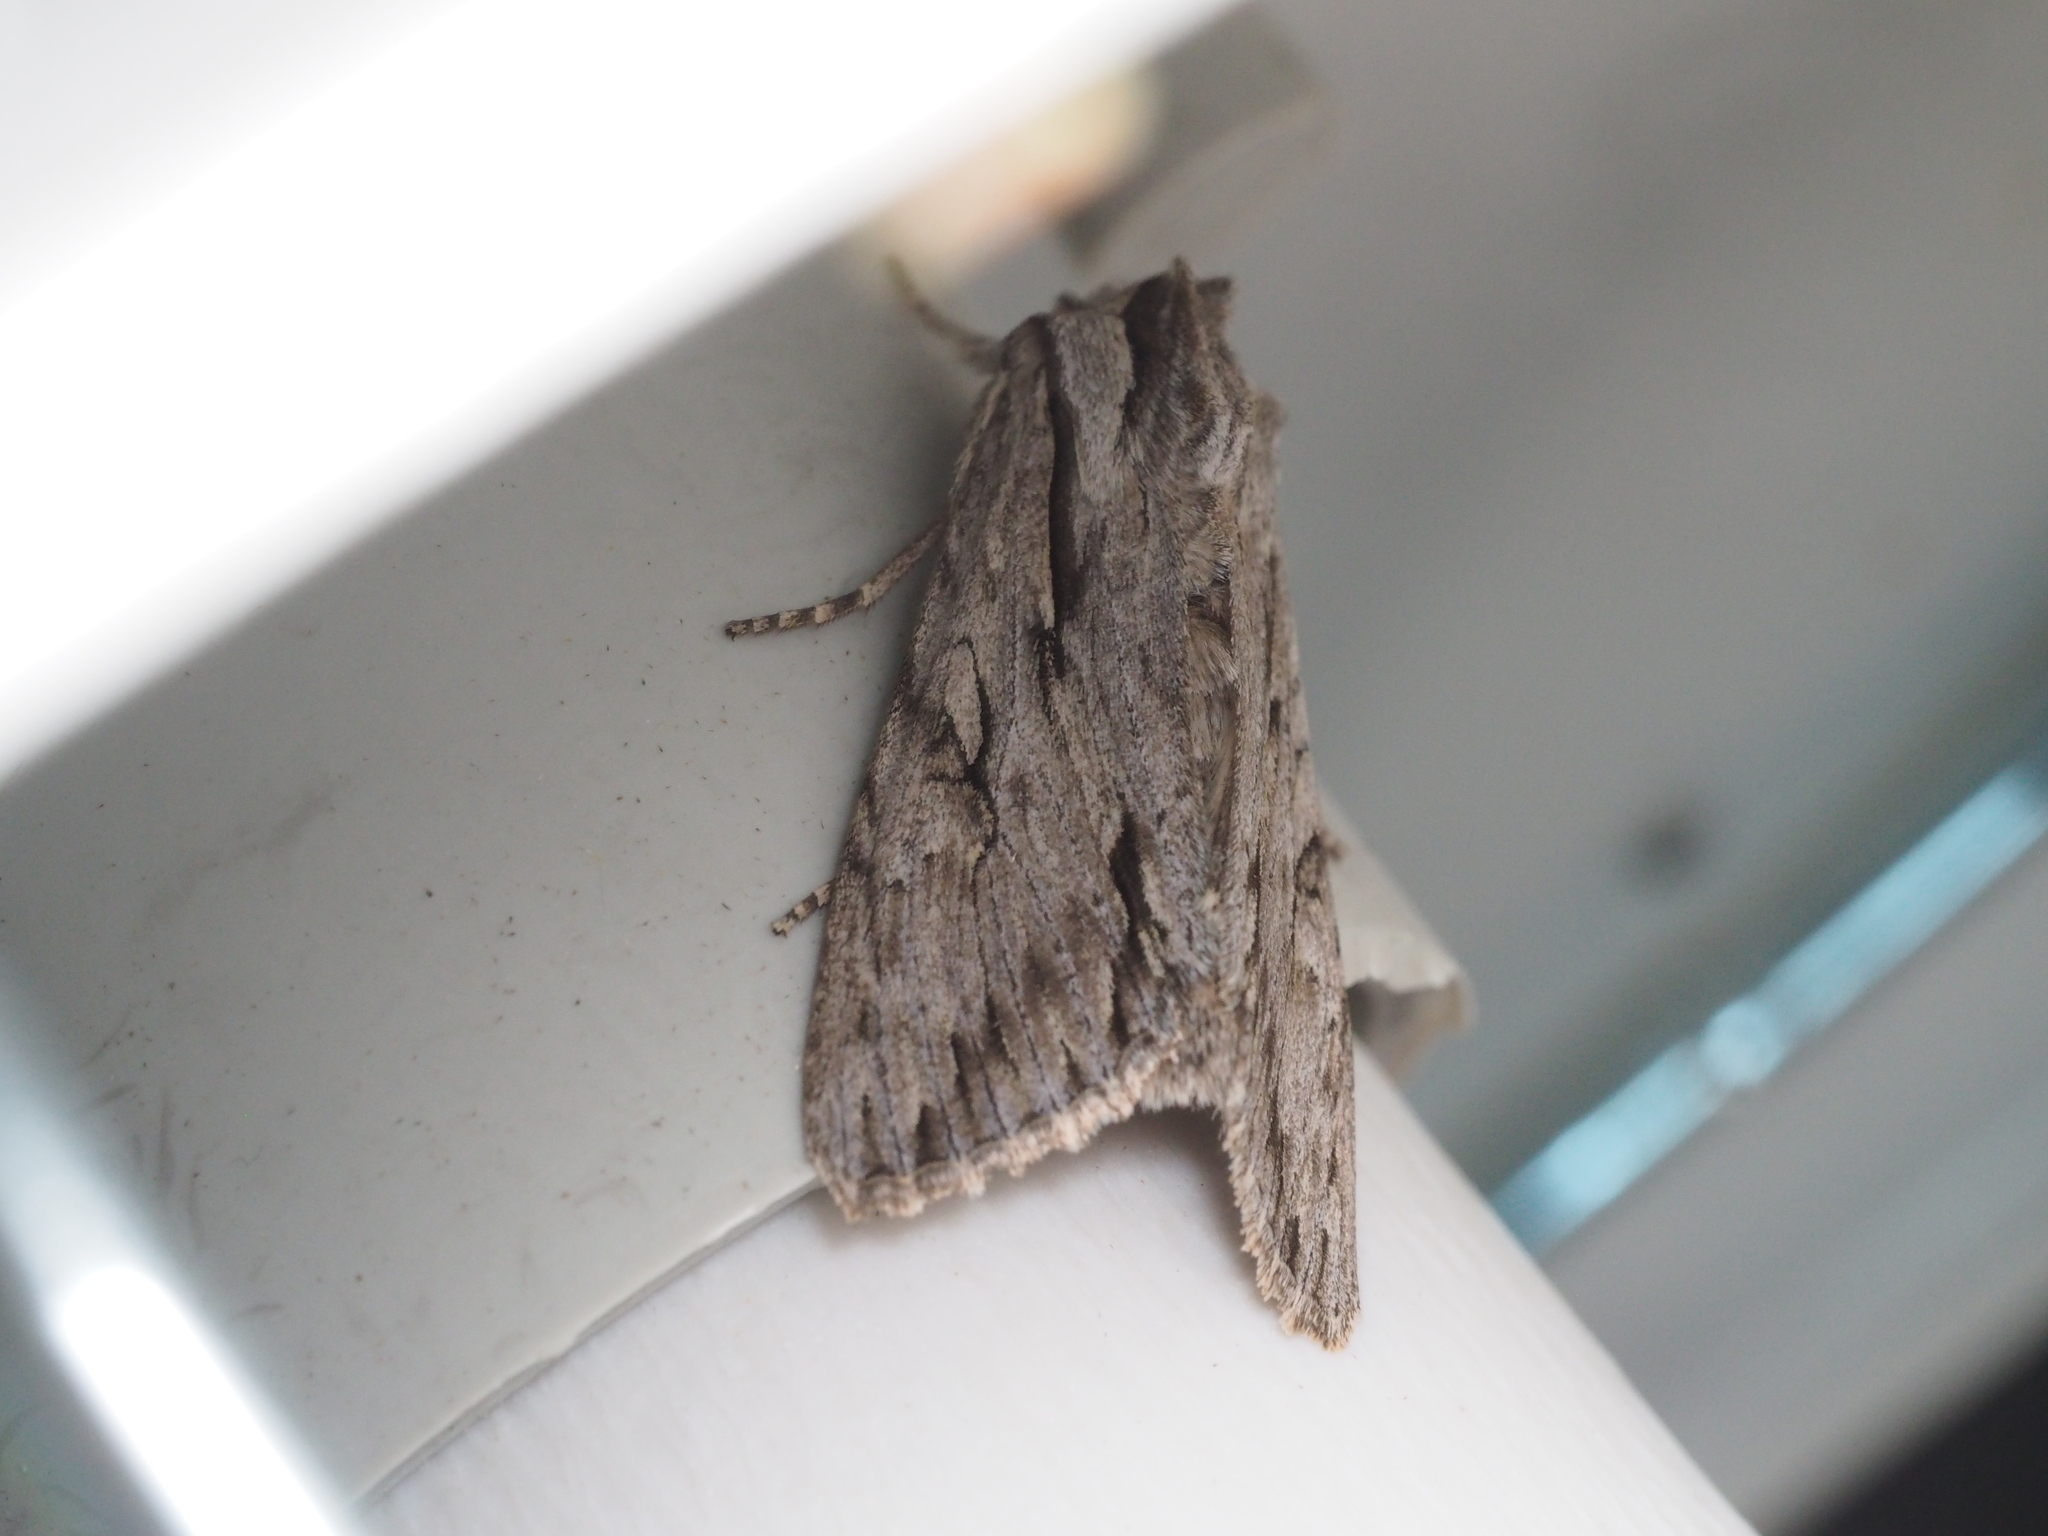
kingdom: Animalia
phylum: Arthropoda
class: Insecta
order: Lepidoptera
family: Noctuidae
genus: Auchmis
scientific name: Auchmis detersa
